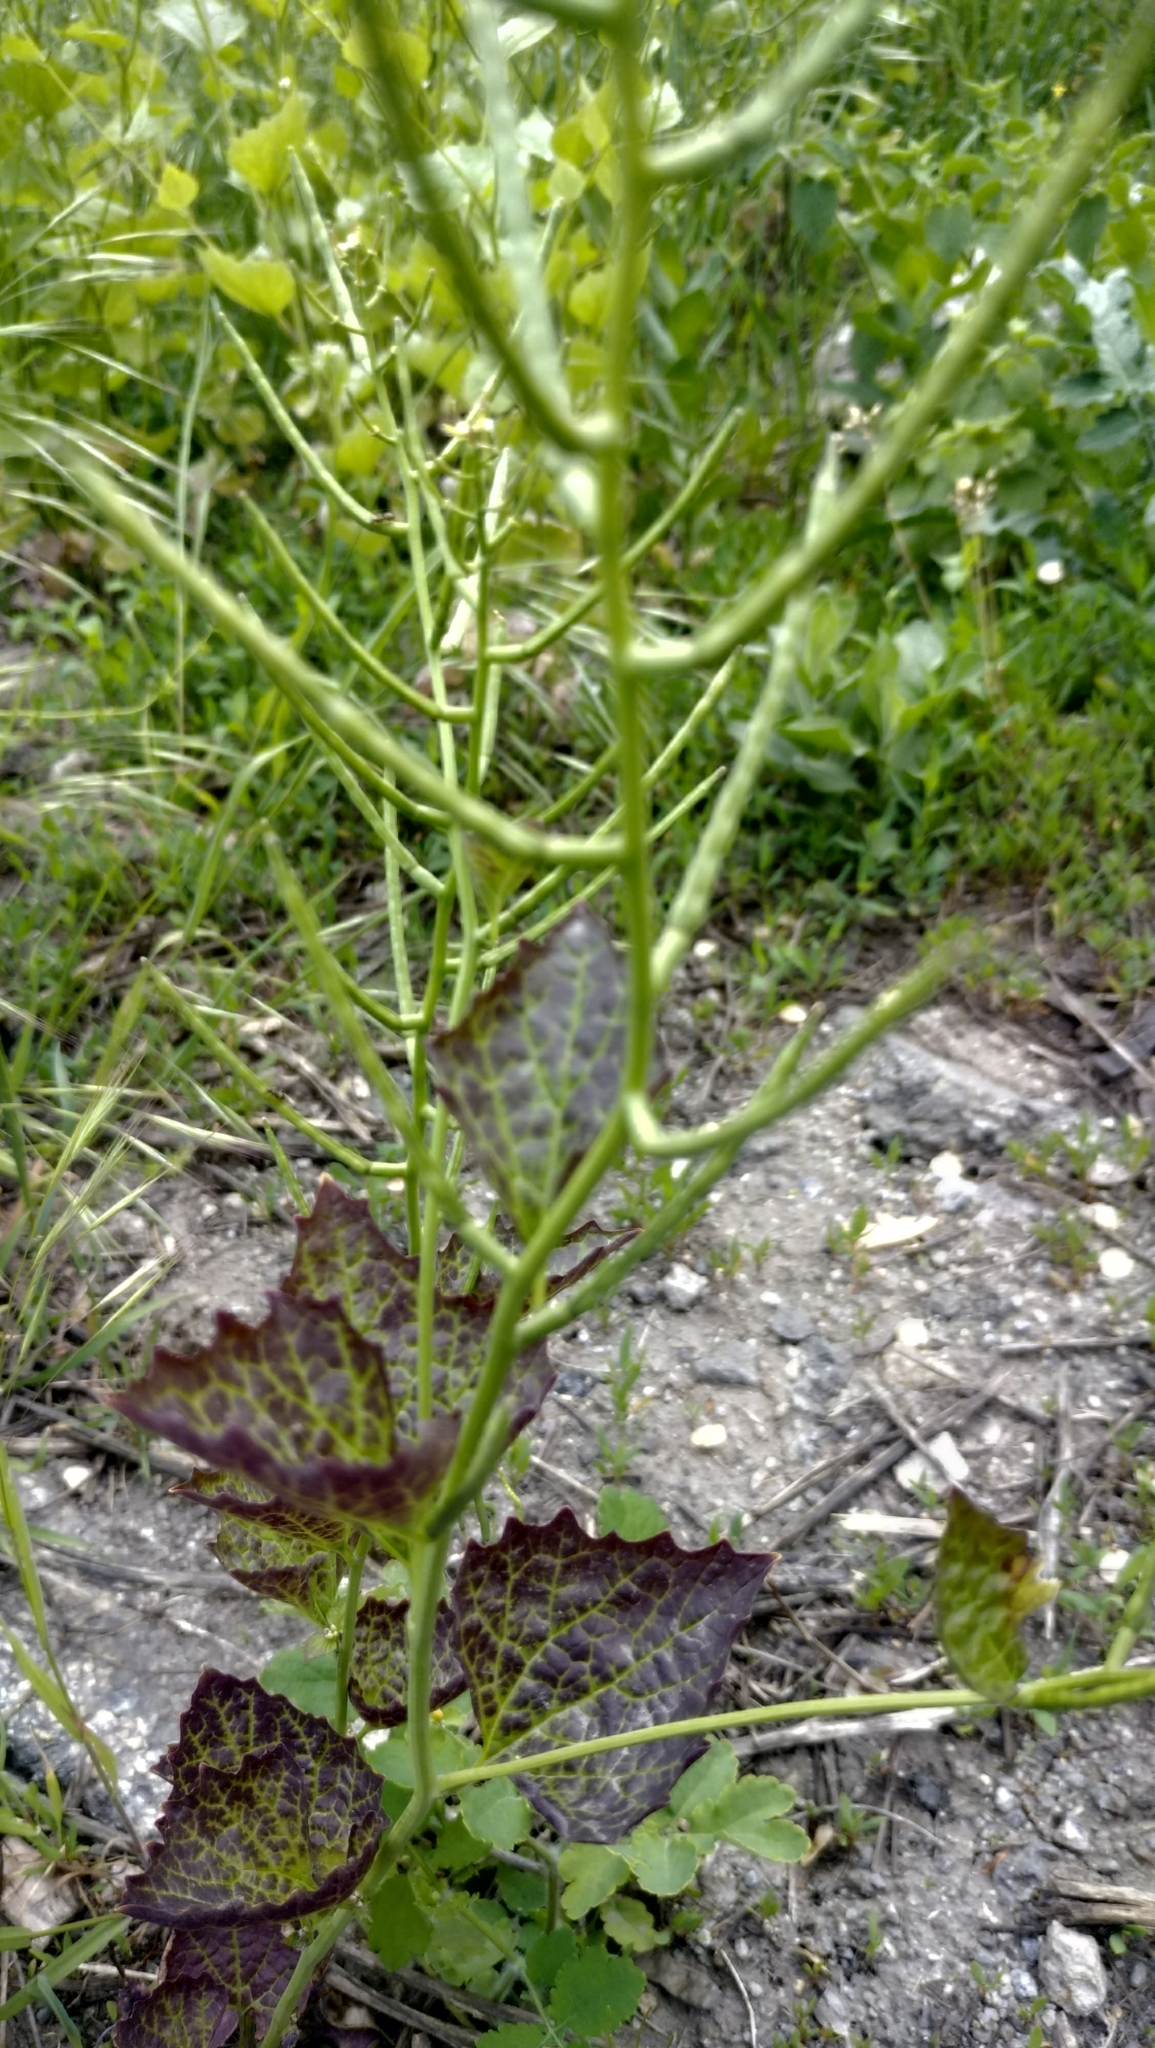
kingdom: Plantae
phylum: Tracheophyta
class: Magnoliopsida
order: Brassicales
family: Brassicaceae
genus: Alliaria
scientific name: Alliaria petiolata
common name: Garlic mustard
